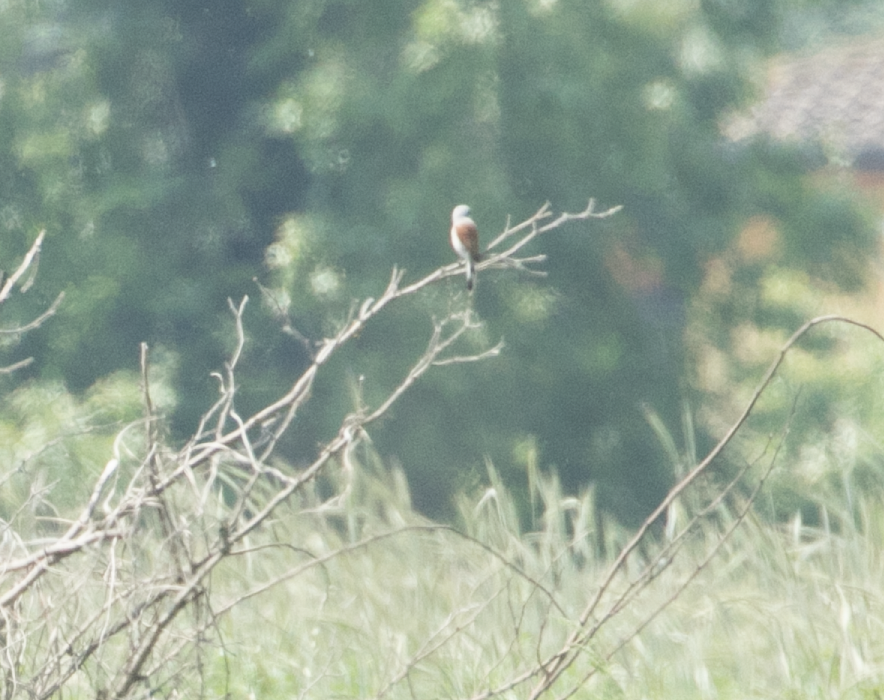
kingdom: Animalia
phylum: Chordata
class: Aves
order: Passeriformes
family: Laniidae
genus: Lanius
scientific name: Lanius collurio
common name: Red-backed shrike
